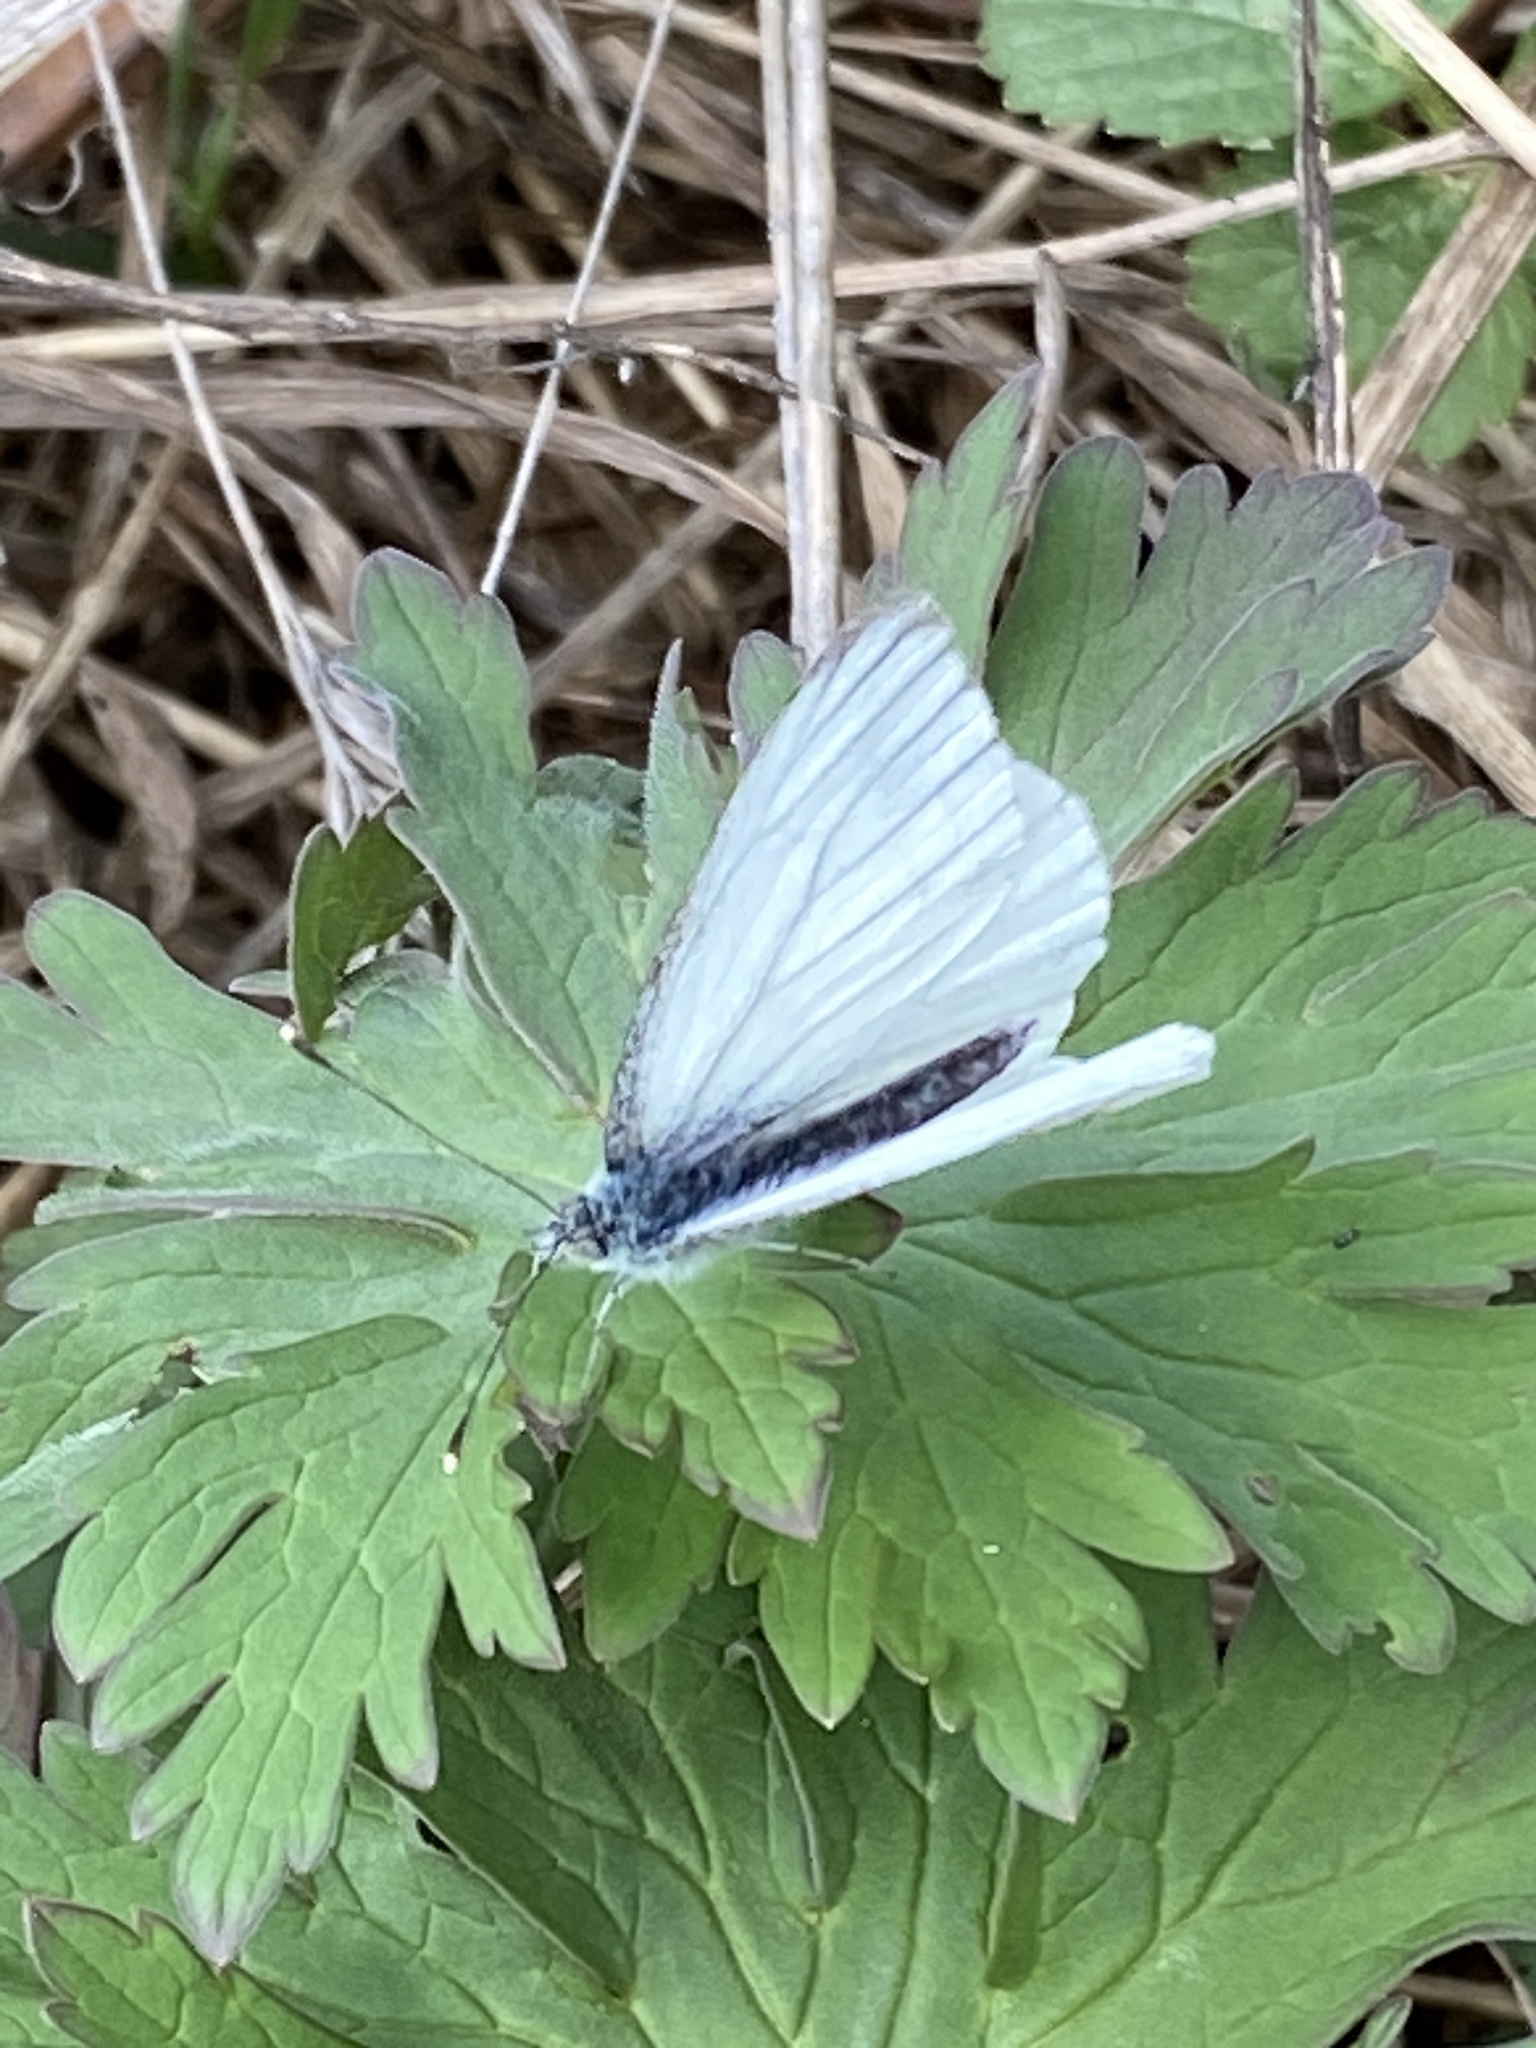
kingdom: Animalia
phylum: Arthropoda
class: Insecta
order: Lepidoptera
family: Pieridae
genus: Pieris
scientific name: Pieris napi
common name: Green-veined white
